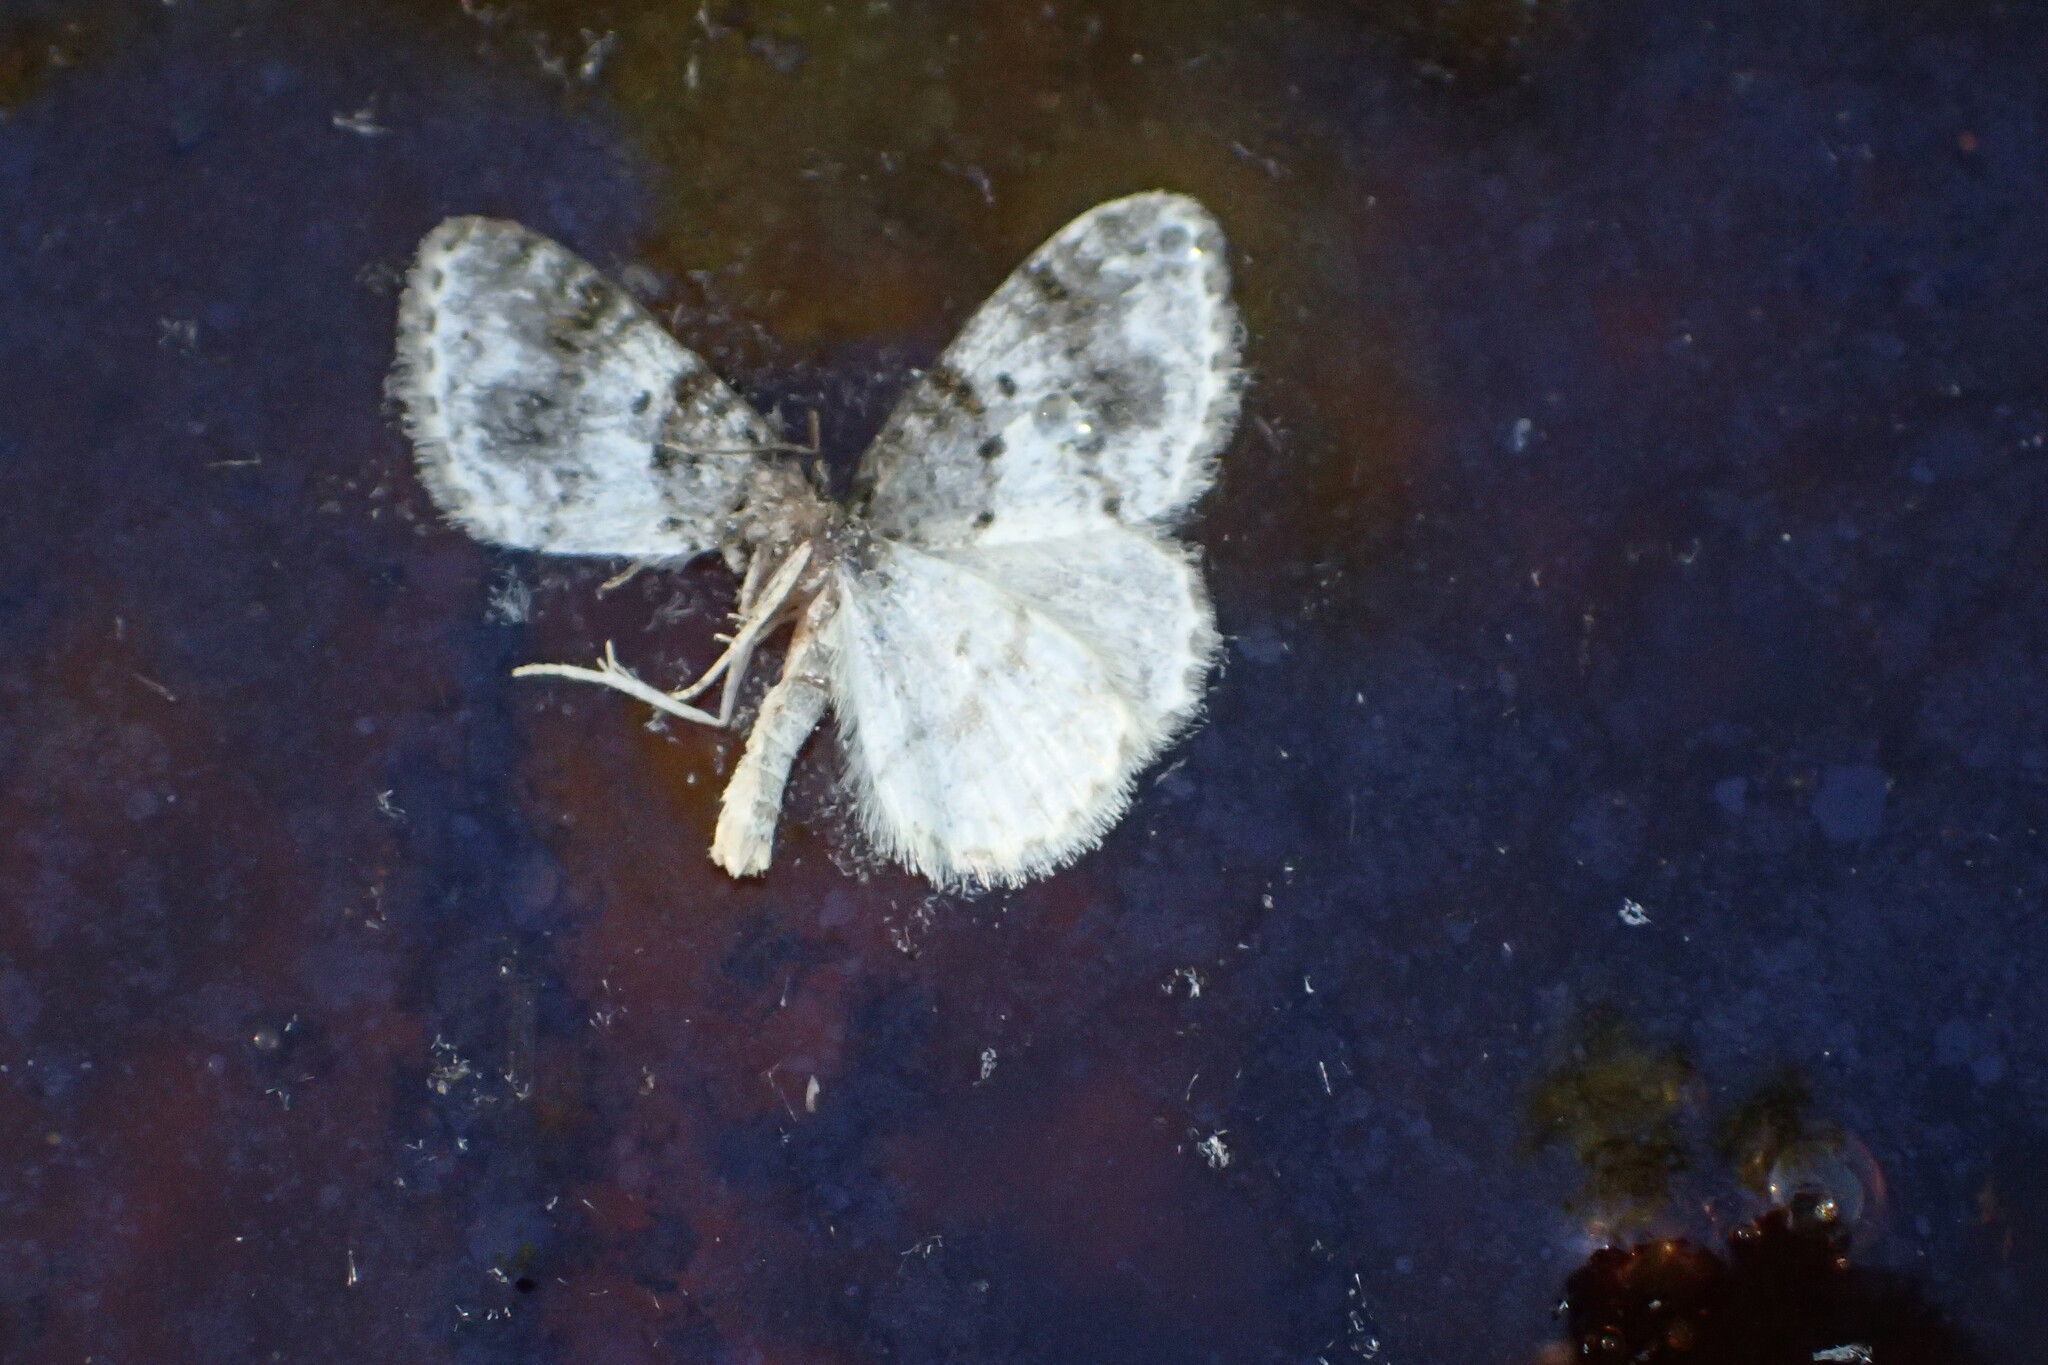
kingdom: Animalia
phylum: Arthropoda
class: Insecta
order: Lepidoptera
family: Geometridae
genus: Hydrelia
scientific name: Hydrelia condensata
